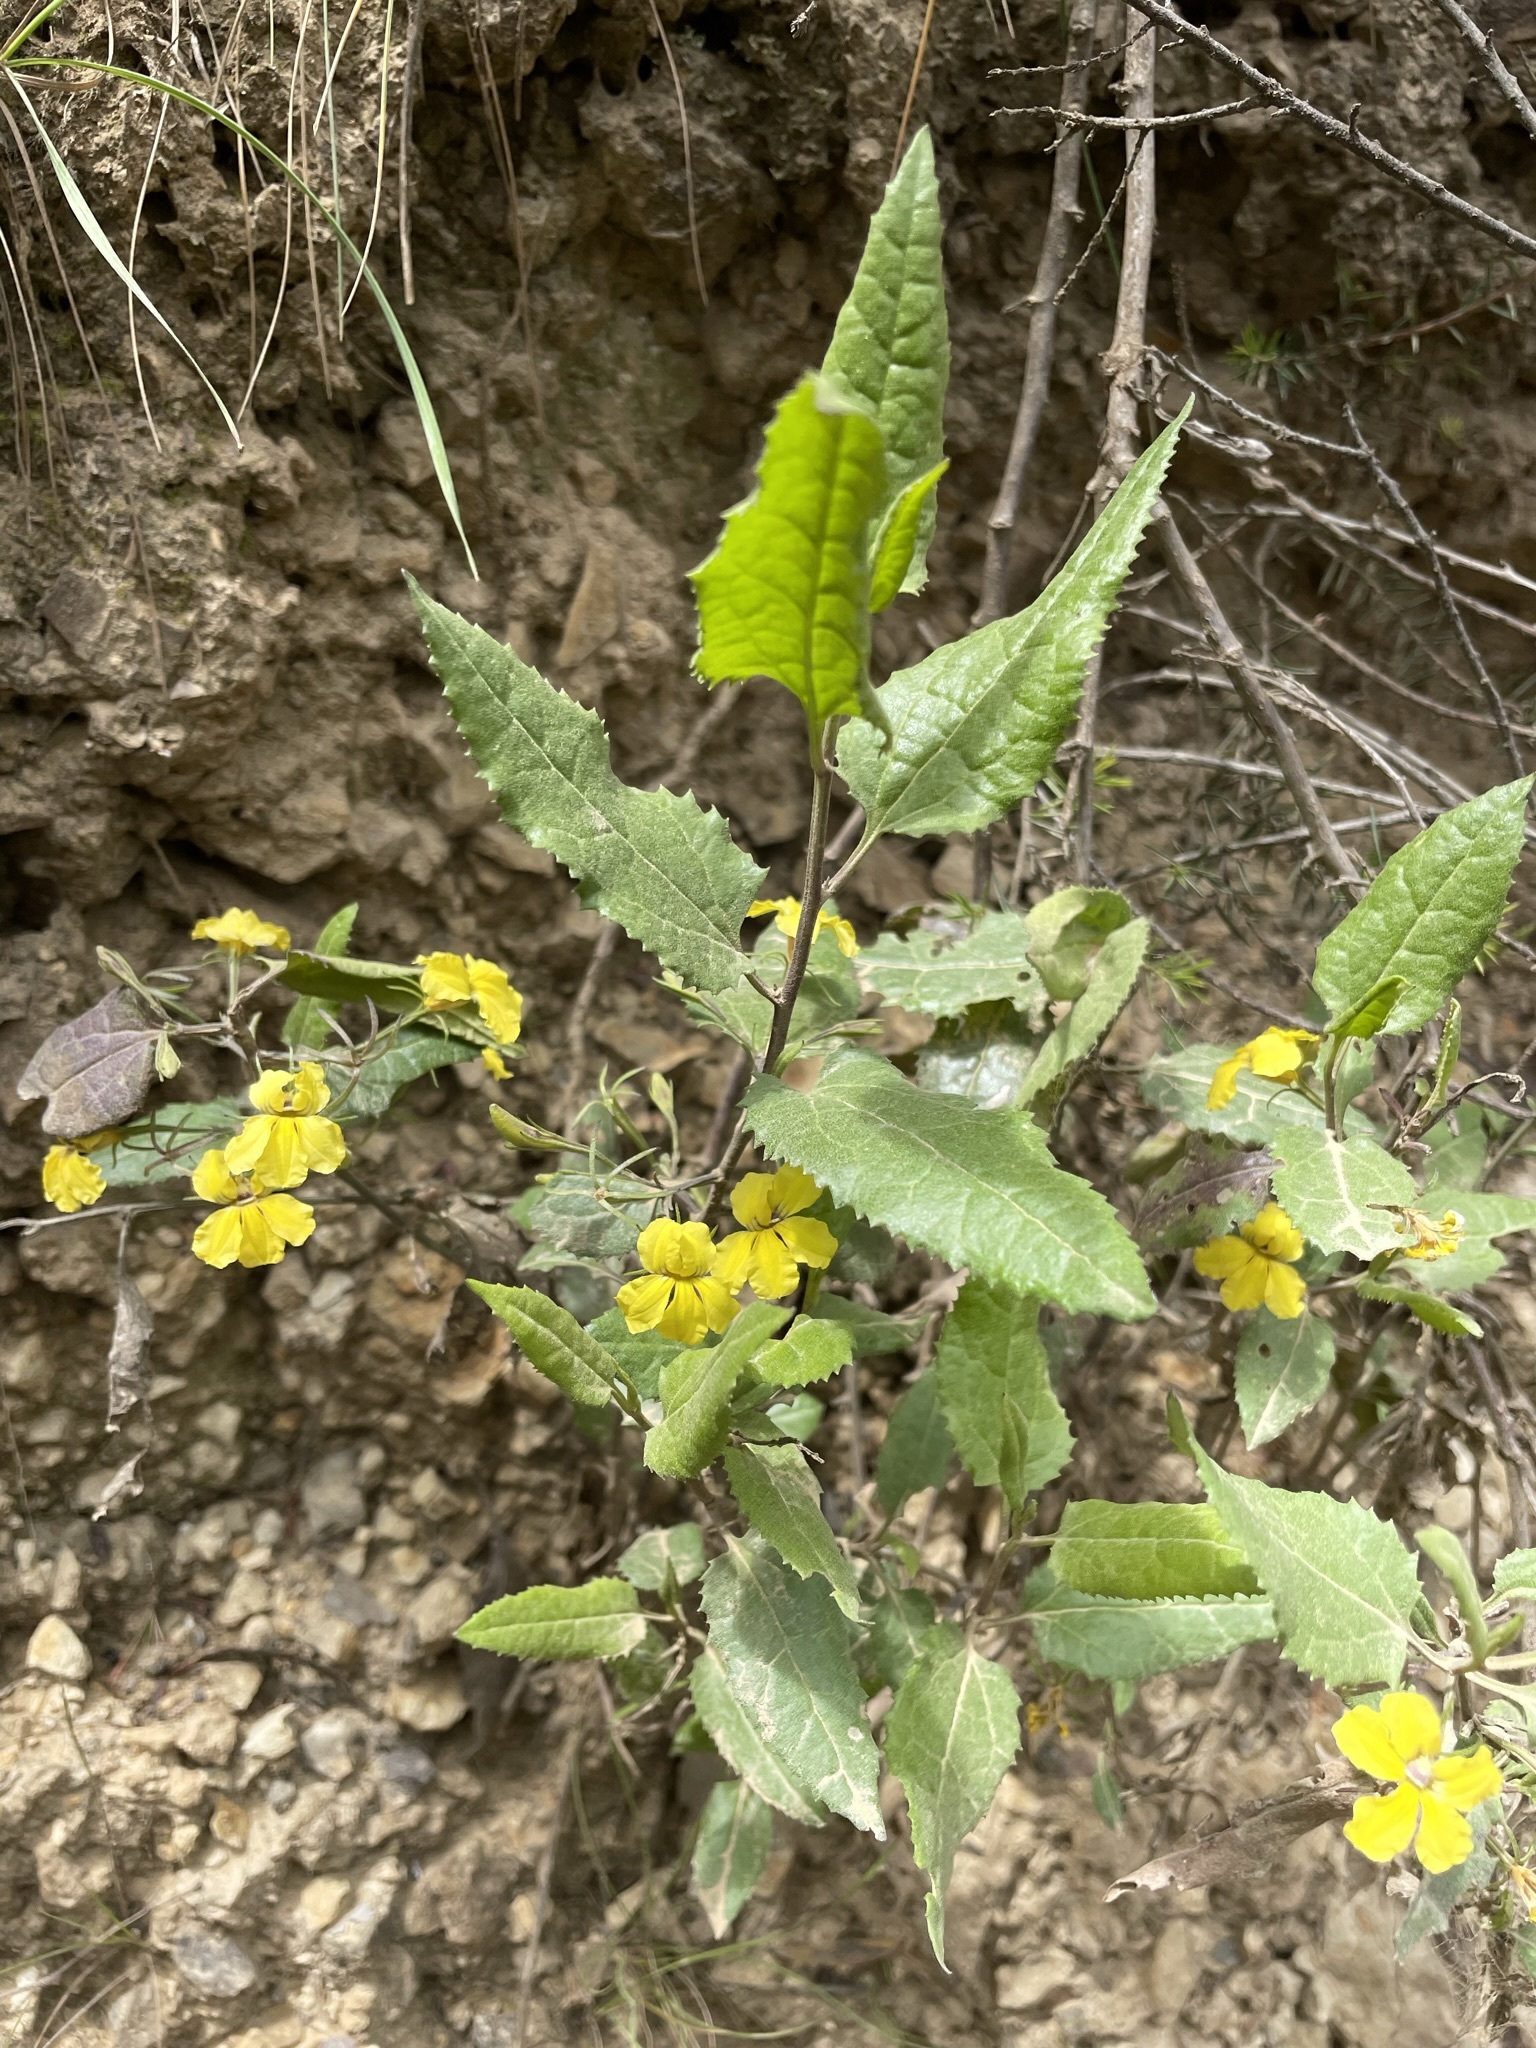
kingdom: Plantae
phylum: Tracheophyta
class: Magnoliopsida
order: Asterales
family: Goodeniaceae
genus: Goodenia
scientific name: Goodenia ovata
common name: Hop goodenia
